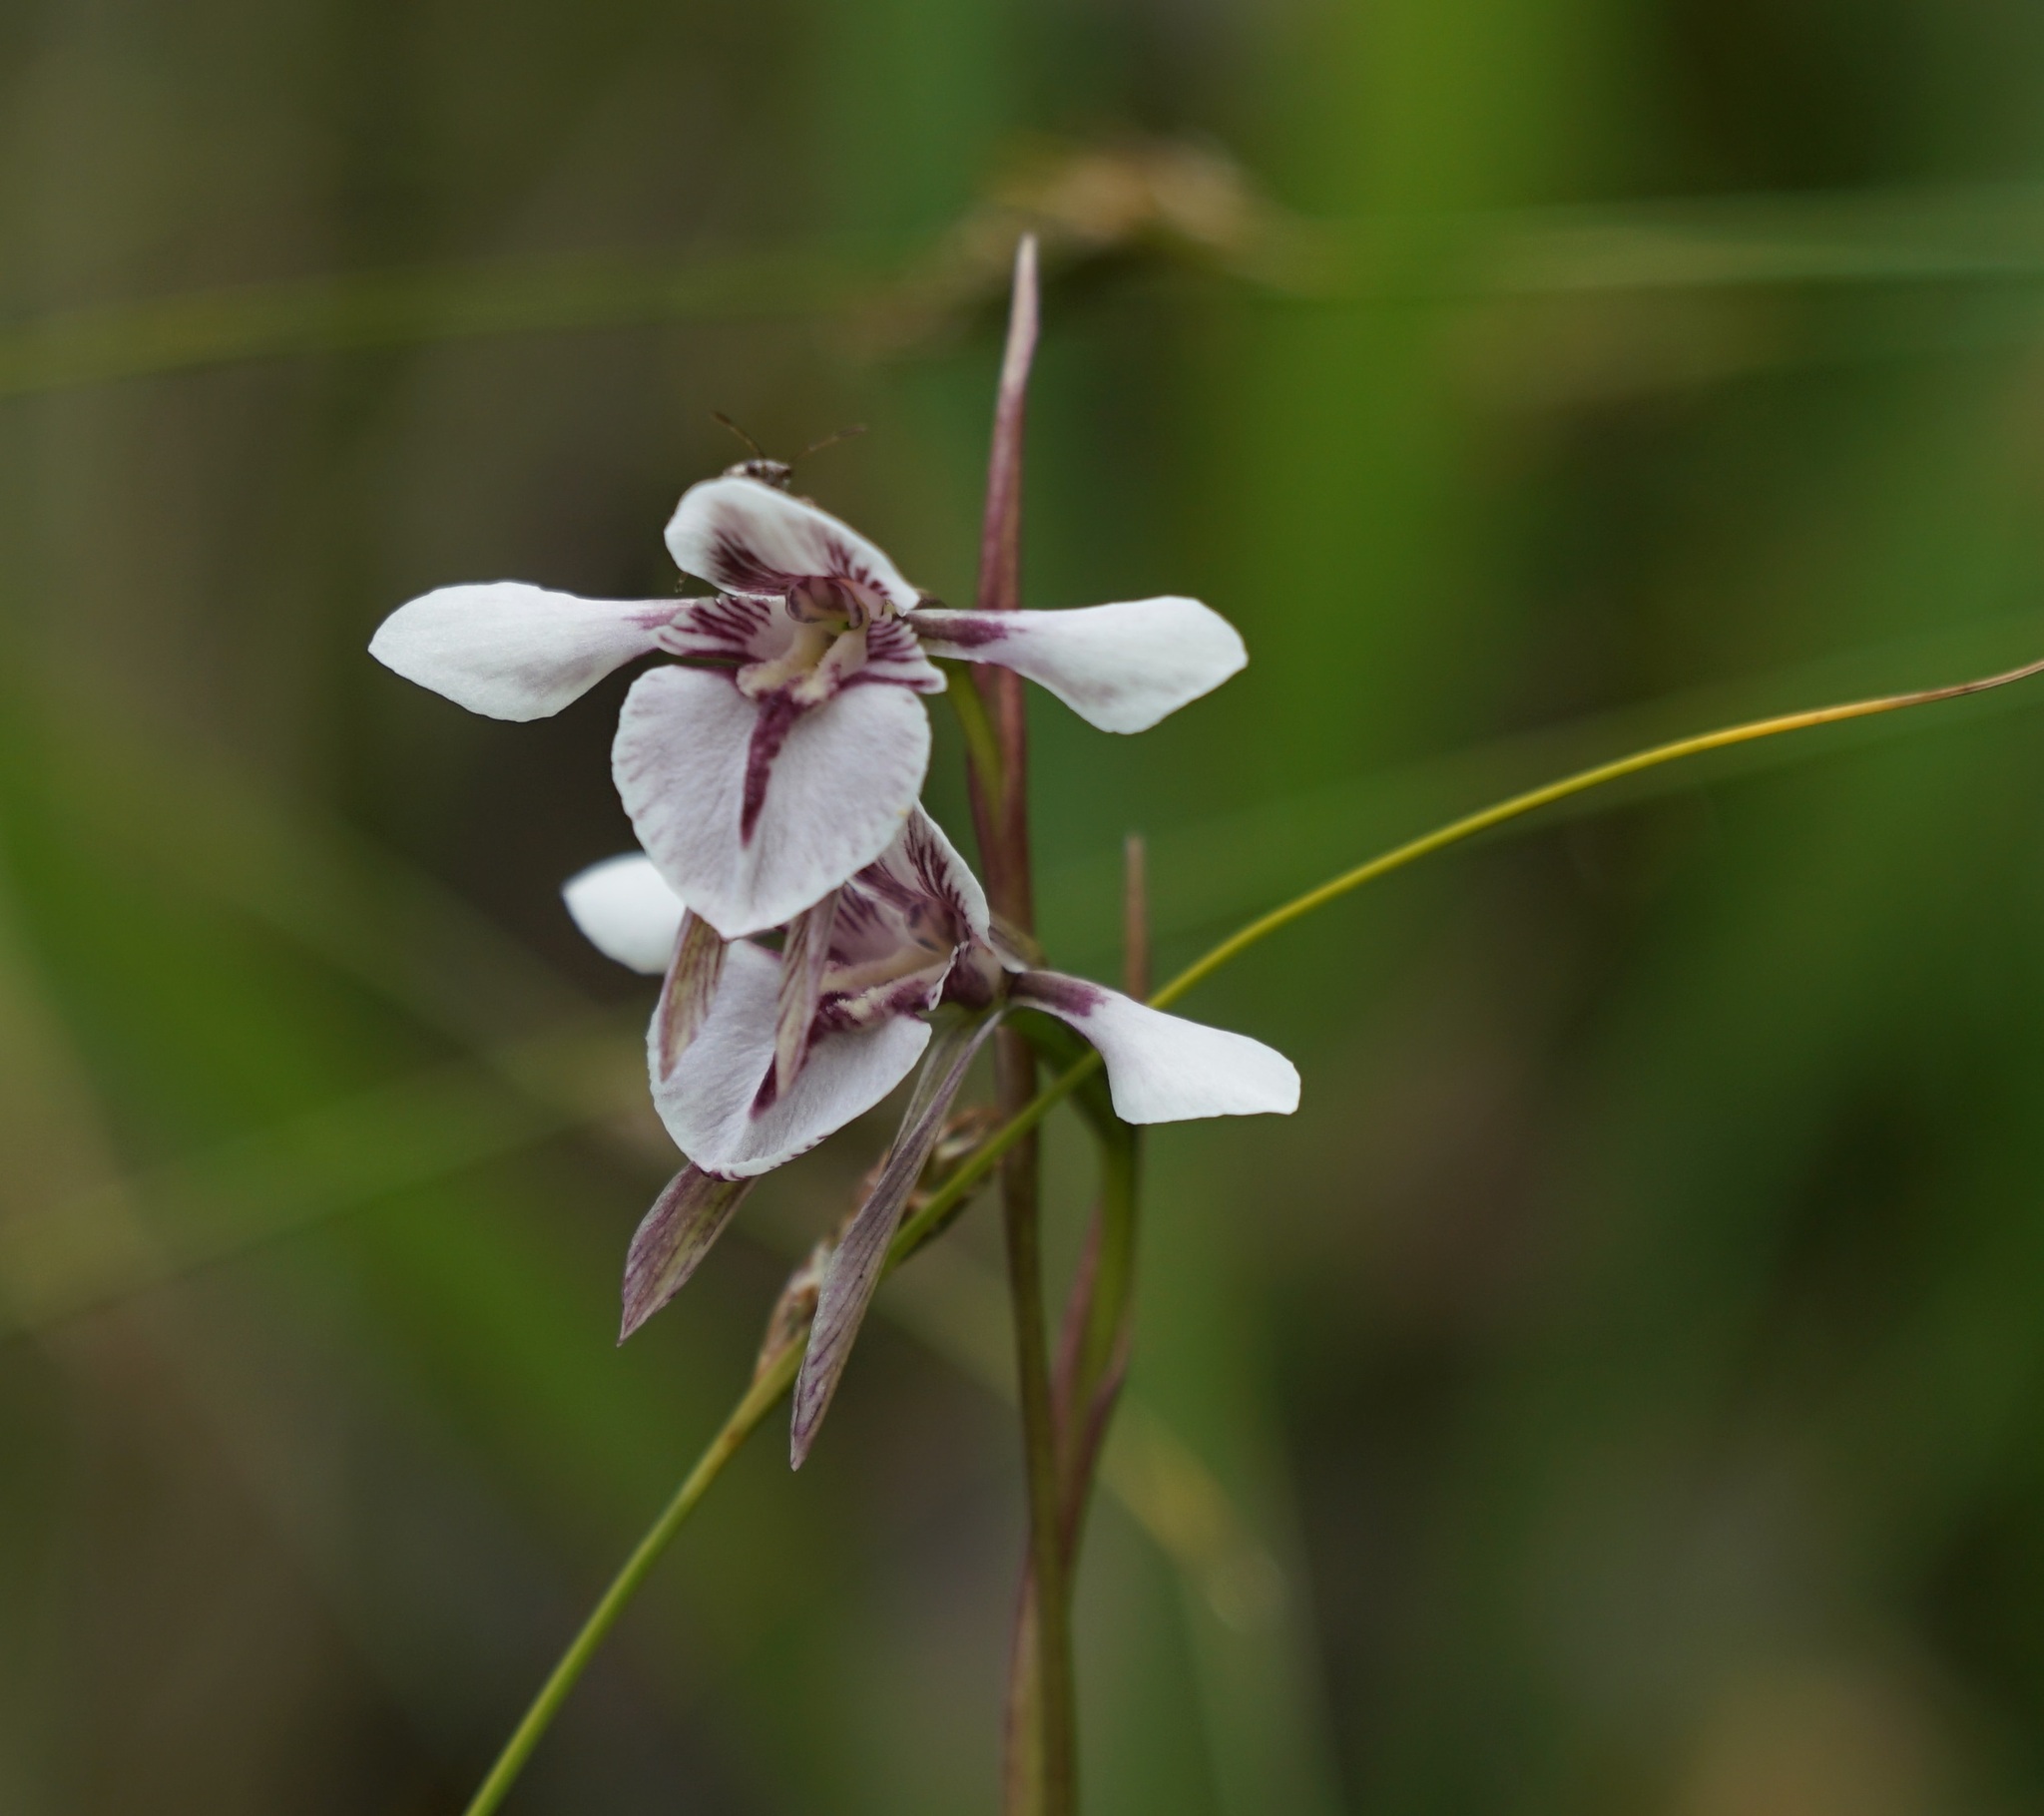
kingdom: Plantae
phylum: Tracheophyta
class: Liliopsida
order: Asparagales
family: Orchidaceae
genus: Diuris
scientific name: Diuris venosa
